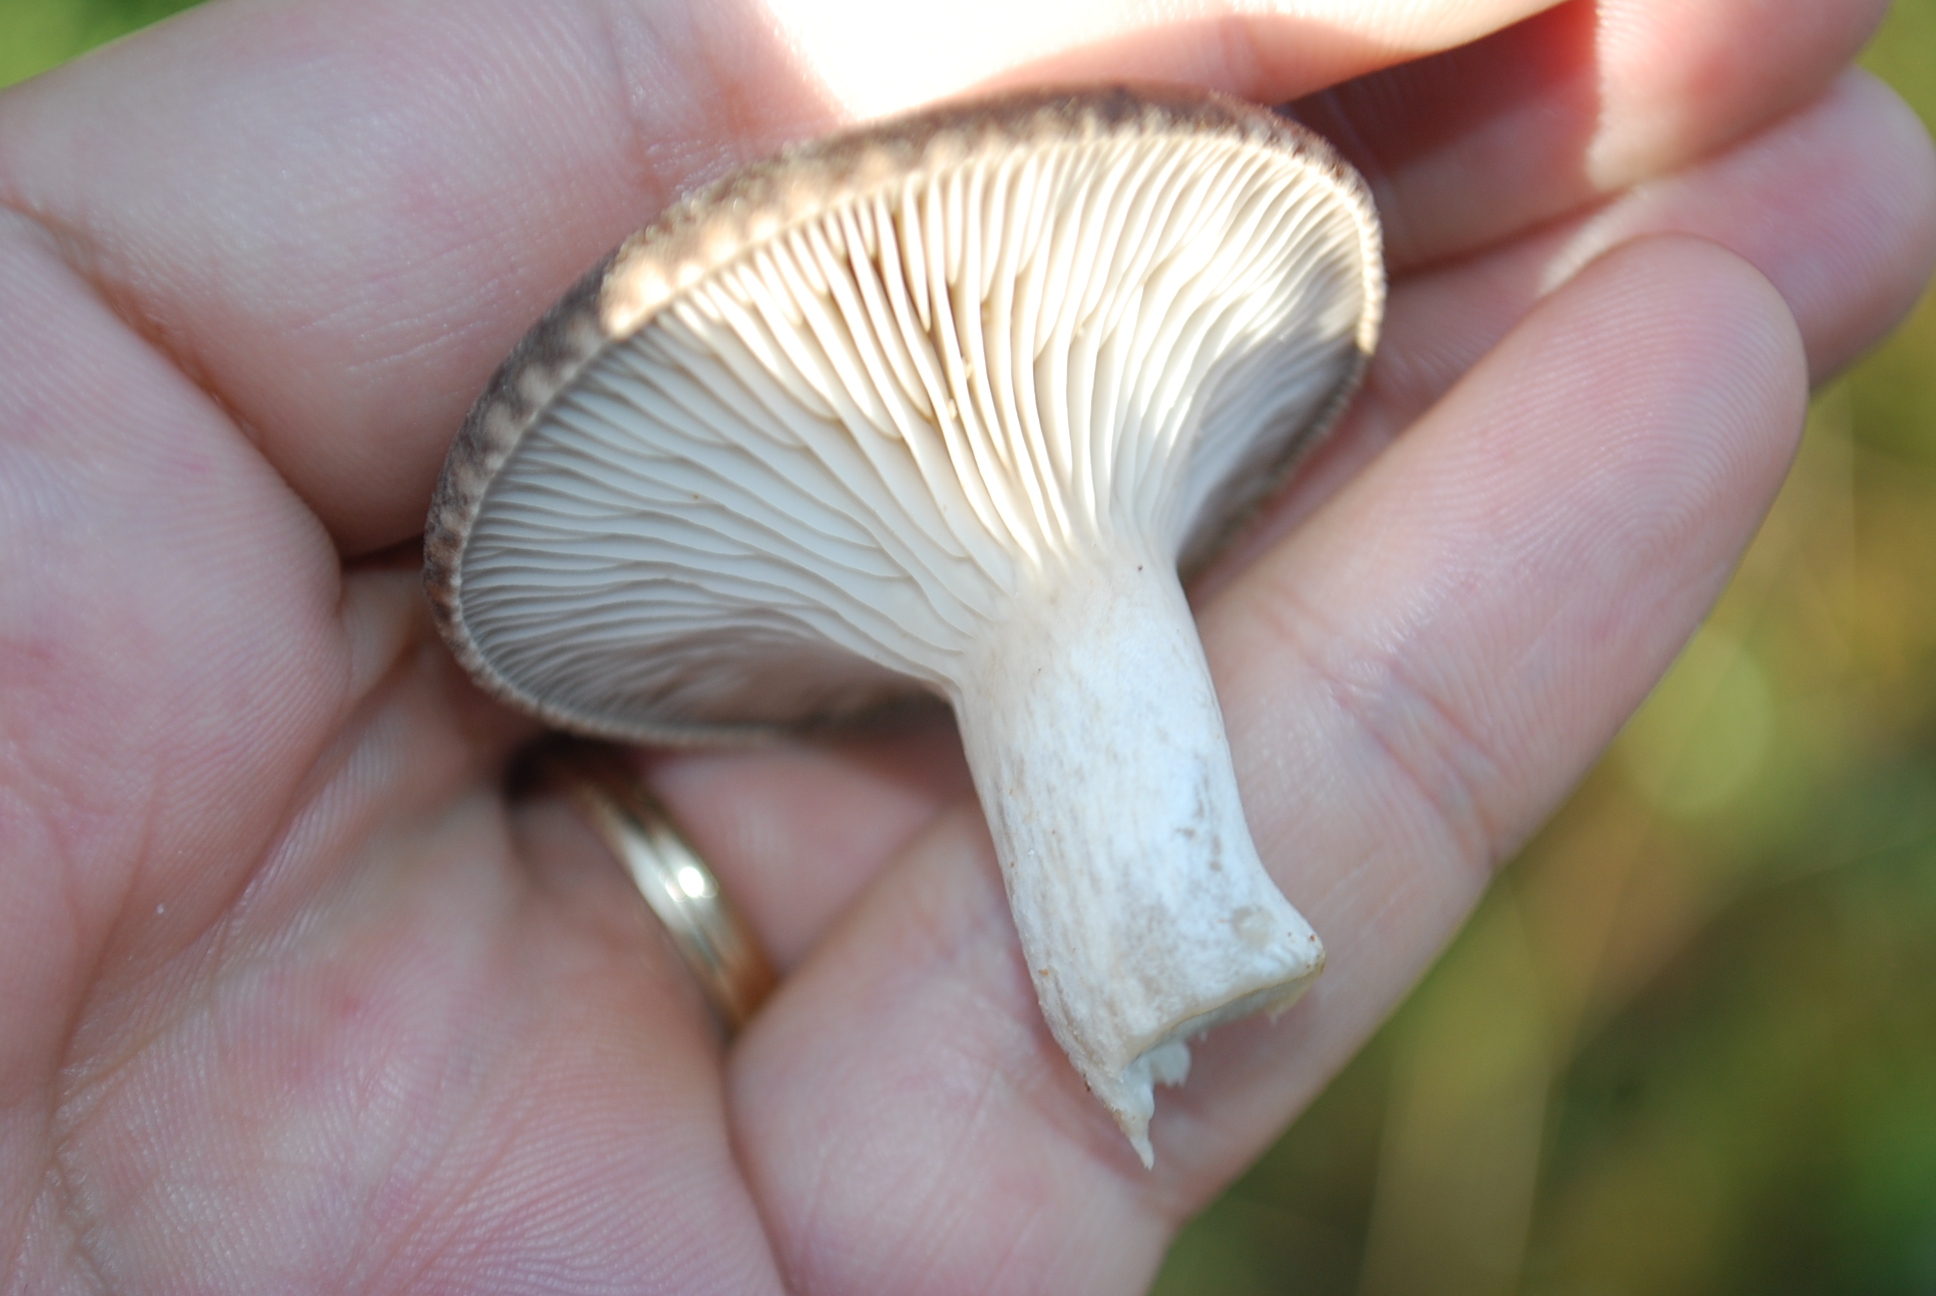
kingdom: Fungi
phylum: Basidiomycota
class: Agaricomycetes
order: Agaricales
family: Pleurotaceae
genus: Pleurotus
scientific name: Pleurotus eryngii
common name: King oyster
